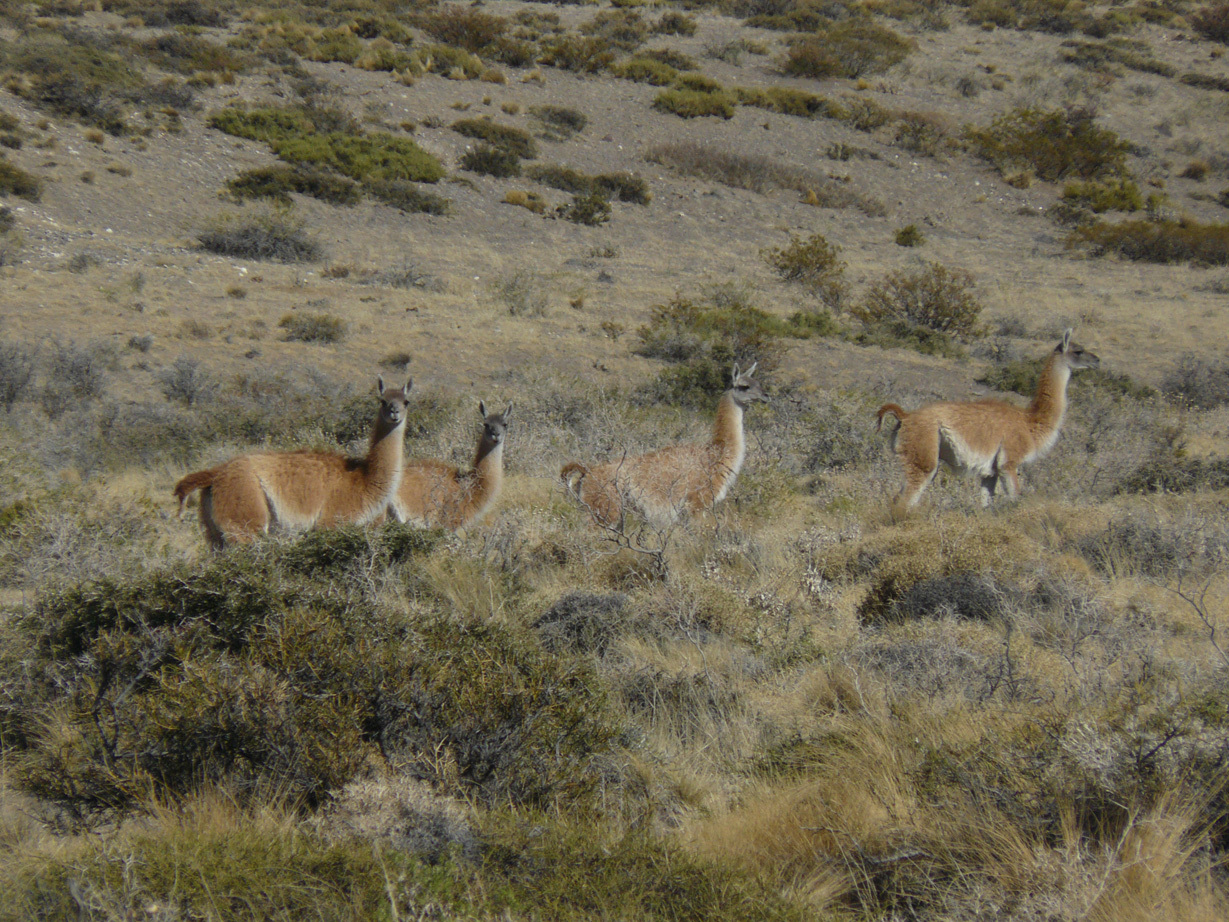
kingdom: Animalia
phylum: Chordata
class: Mammalia
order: Artiodactyla
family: Camelidae
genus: Lama
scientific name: Lama glama
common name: Llama
